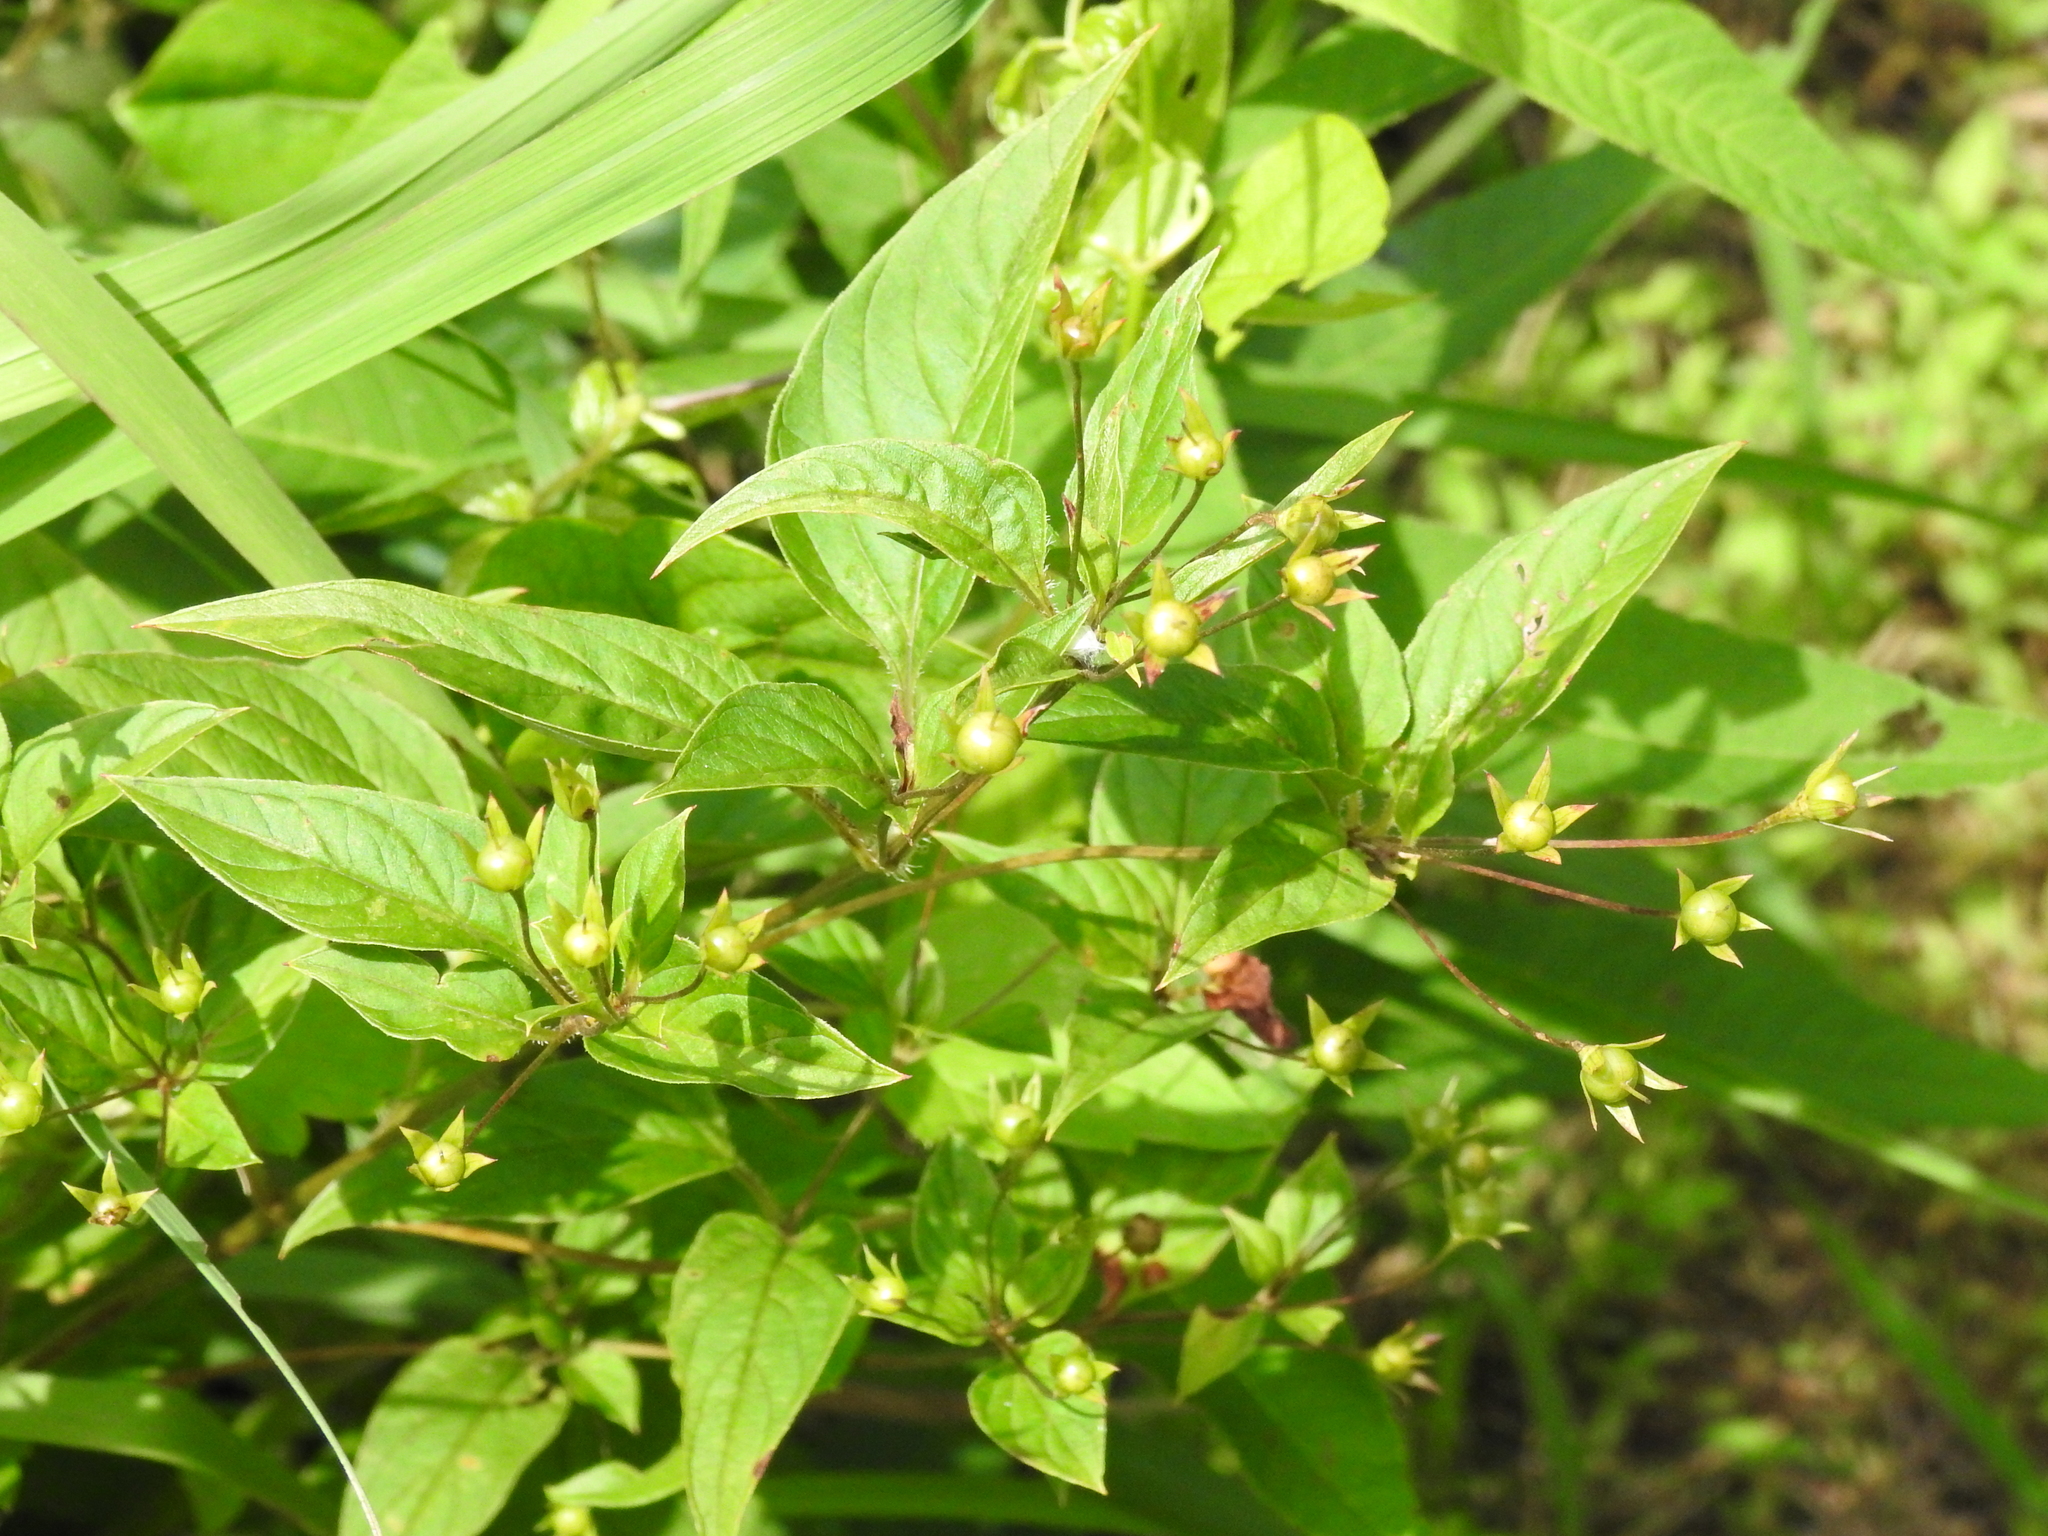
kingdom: Plantae
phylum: Tracheophyta
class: Magnoliopsida
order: Ericales
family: Primulaceae
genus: Lysimachia
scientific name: Lysimachia ciliata
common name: Fringed loosestrife
